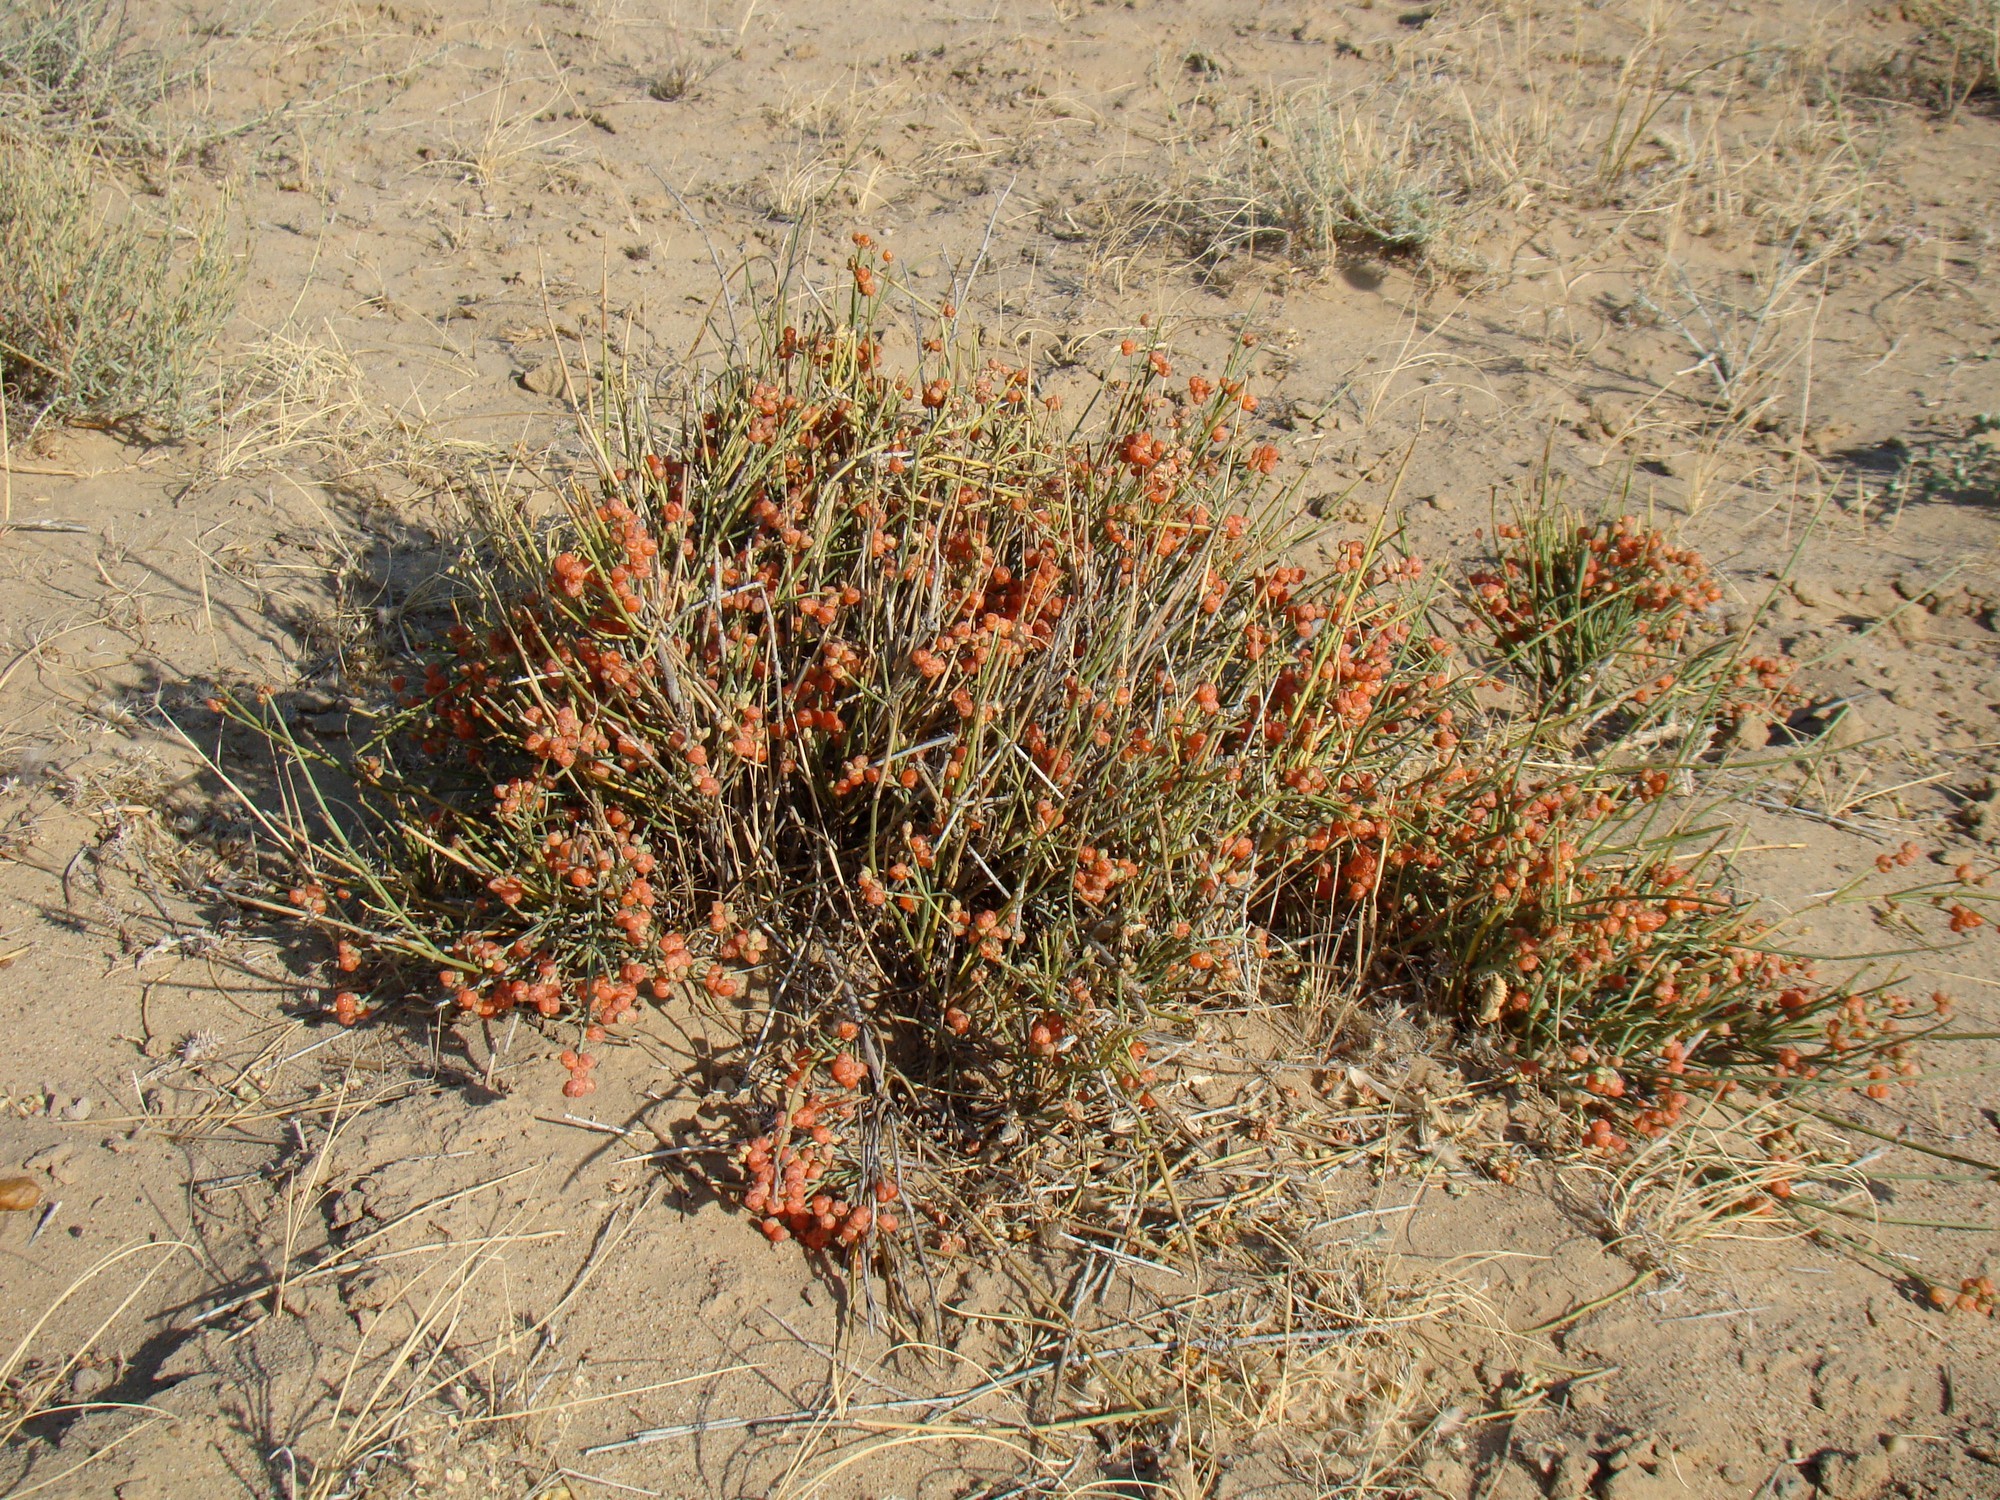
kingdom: Plantae
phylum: Tracheophyta
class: Gnetopsida
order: Ephedrales
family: Ephedraceae
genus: Ephedra
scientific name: Ephedra intermedia
